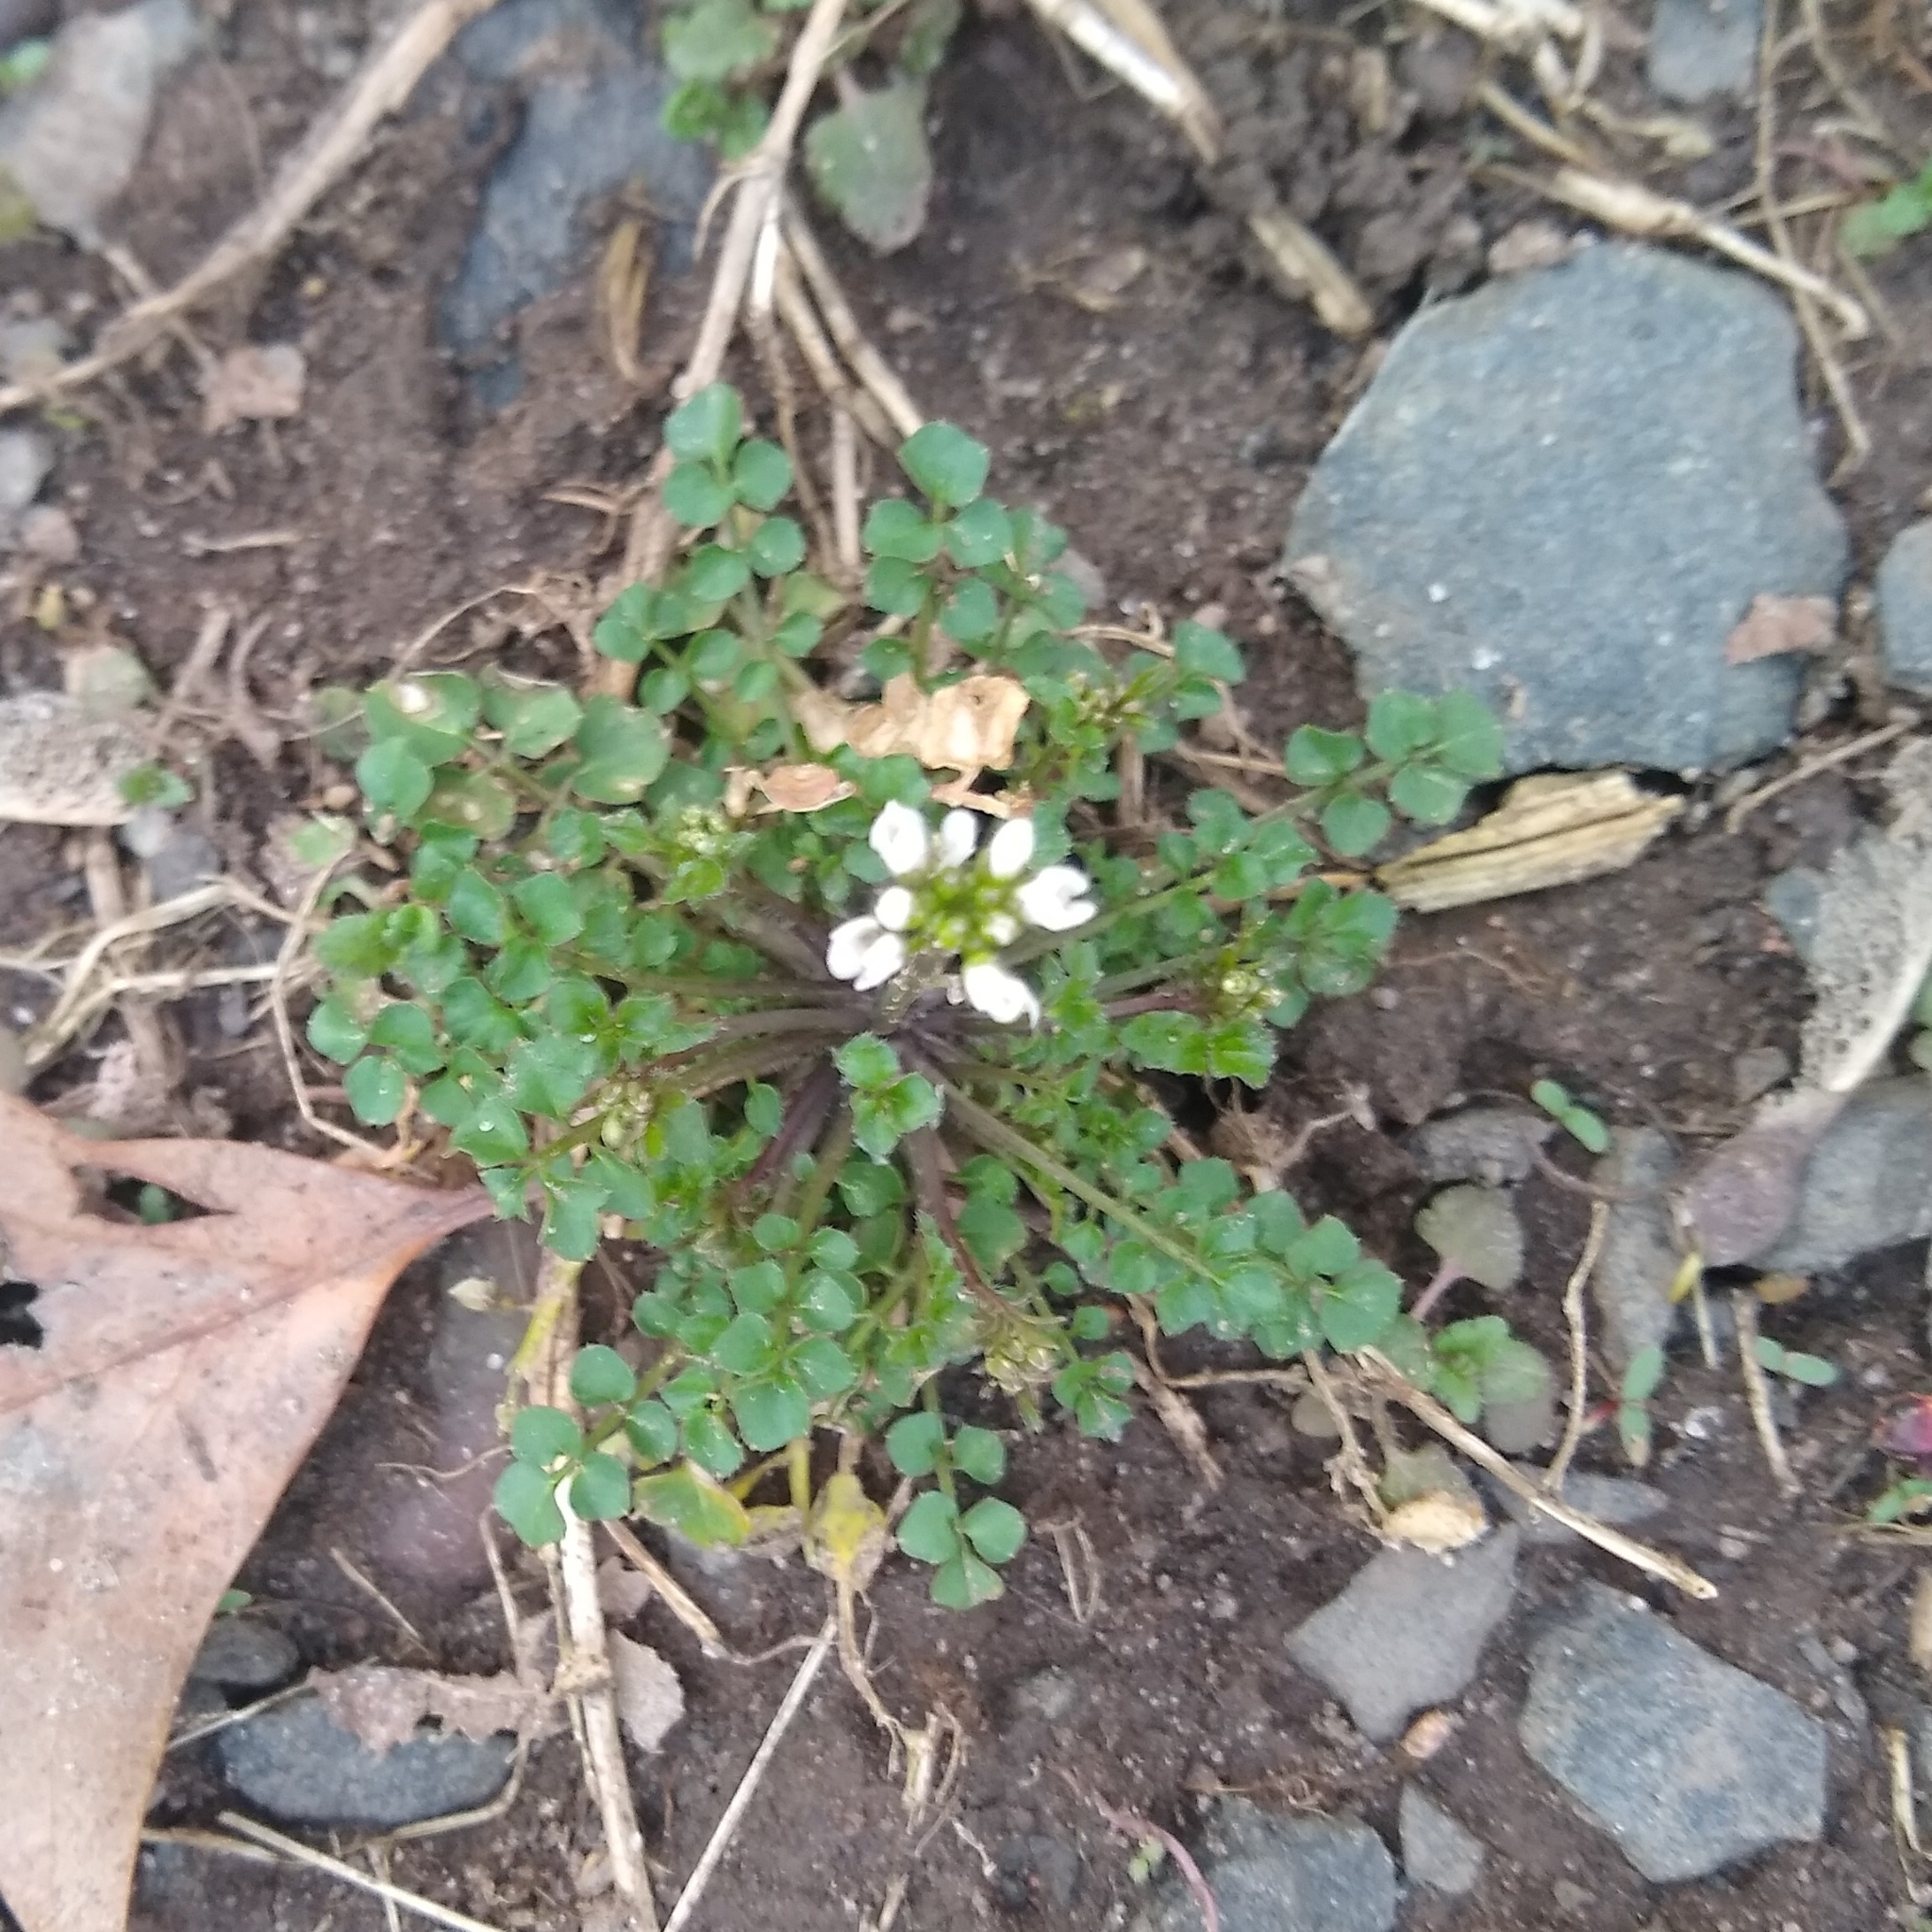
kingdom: Plantae
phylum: Tracheophyta
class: Magnoliopsida
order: Brassicales
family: Brassicaceae
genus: Cardamine
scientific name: Cardamine hirsuta
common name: Hairy bittercress
